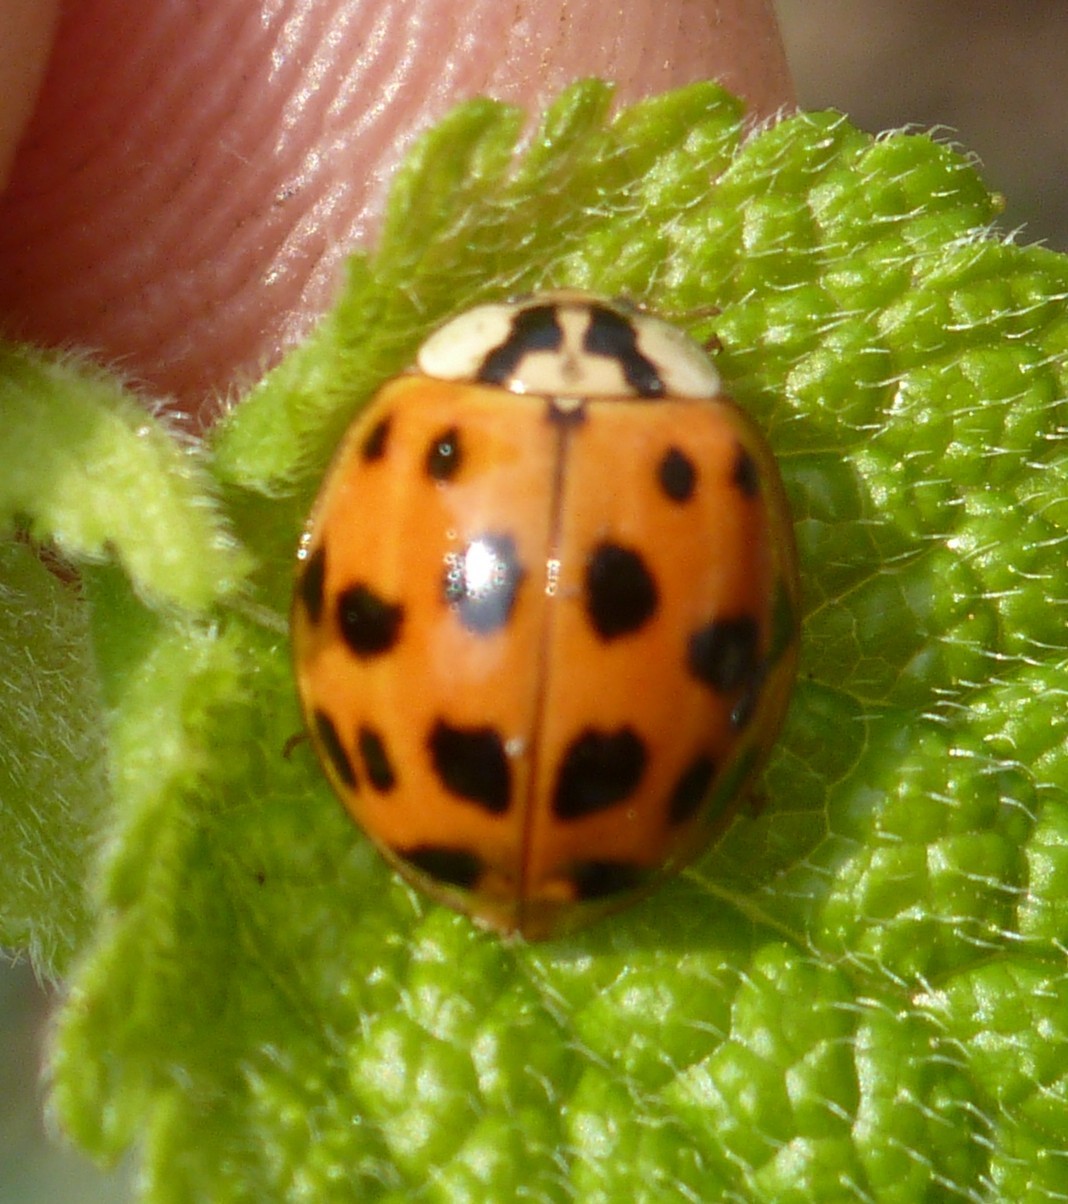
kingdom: Animalia
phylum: Arthropoda
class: Insecta
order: Coleoptera
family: Coccinellidae
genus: Harmonia
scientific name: Harmonia axyridis
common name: Harlequin ladybird
